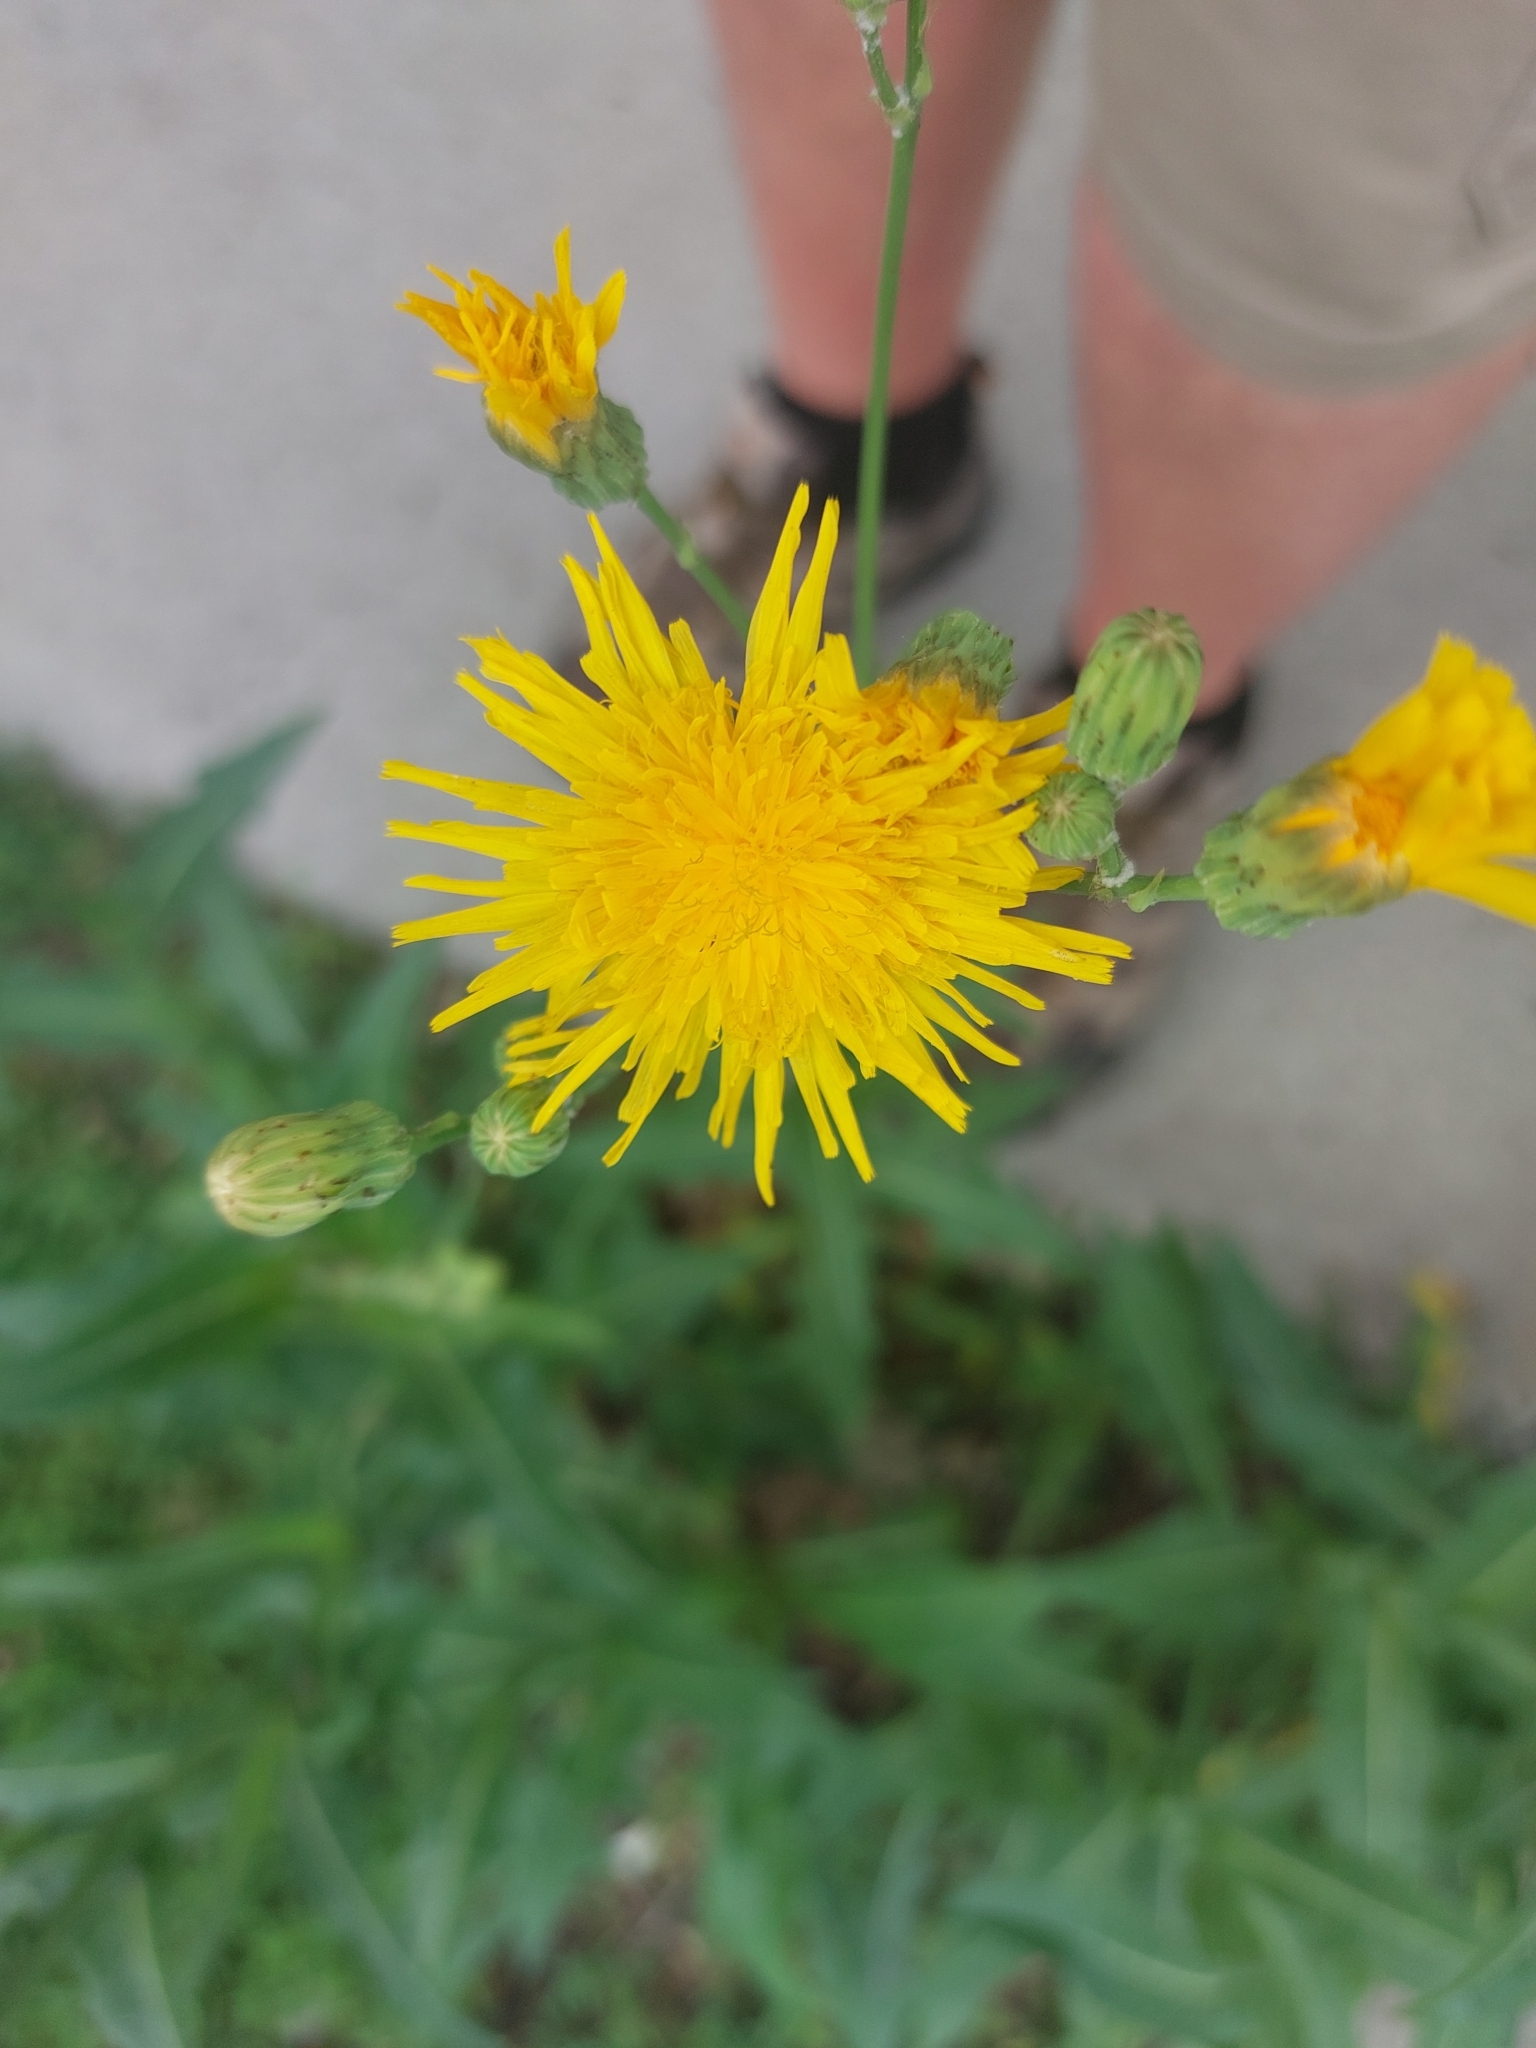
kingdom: Plantae
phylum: Tracheophyta
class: Magnoliopsida
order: Asterales
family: Asteraceae
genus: Sonchus
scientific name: Sonchus arvensis
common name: Perennial sow-thistle
